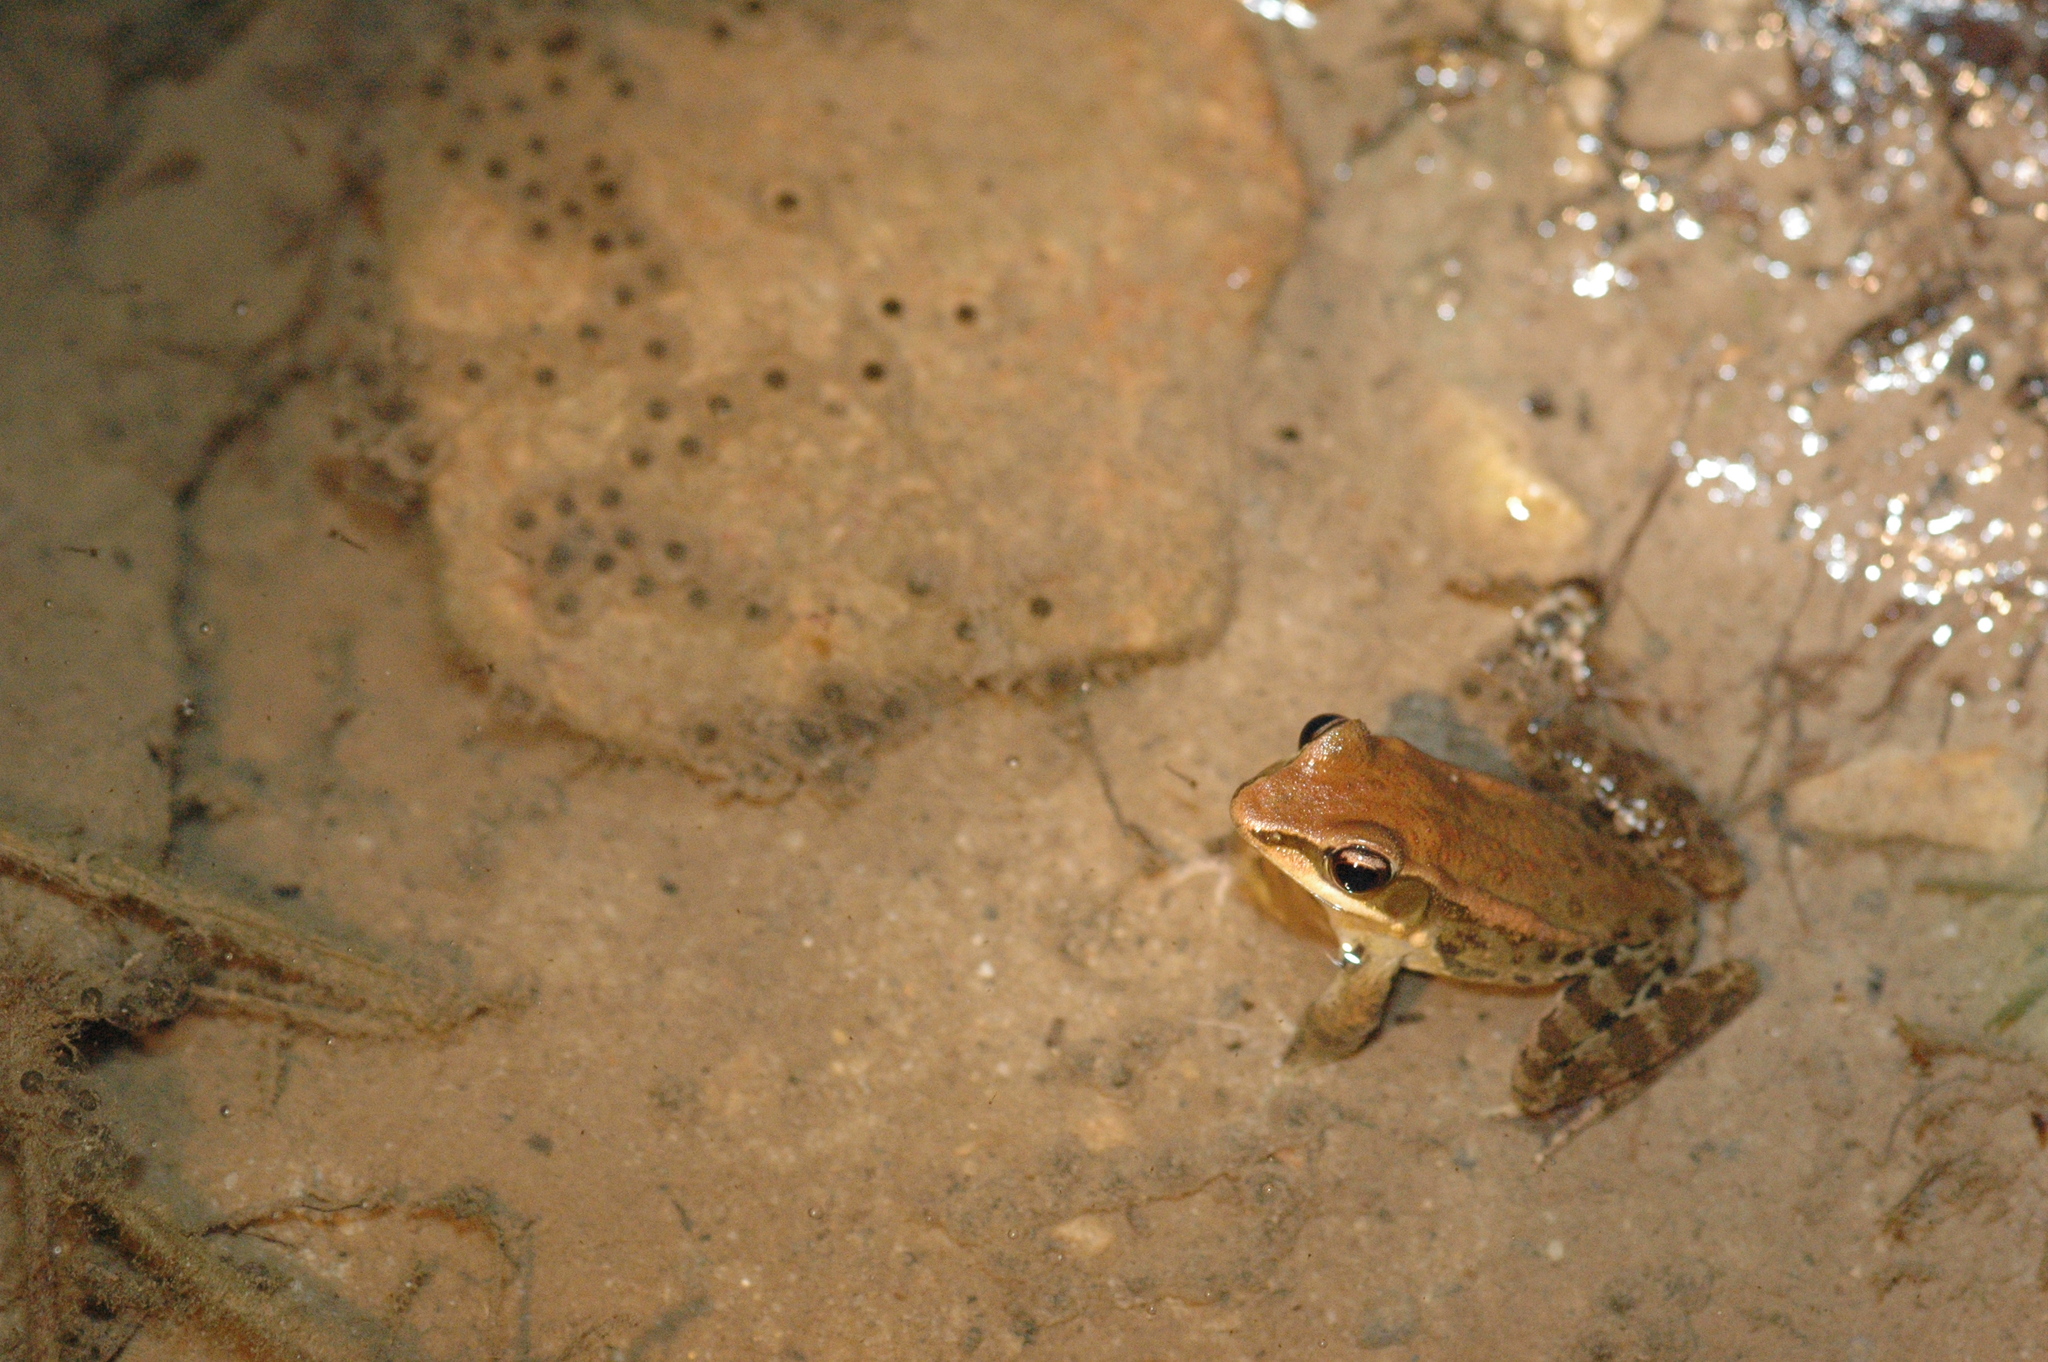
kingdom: Animalia
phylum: Chordata
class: Amphibia
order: Anura
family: Ranidae
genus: Hylarana
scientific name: Hylarana latouchii
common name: Broad-folded frog
